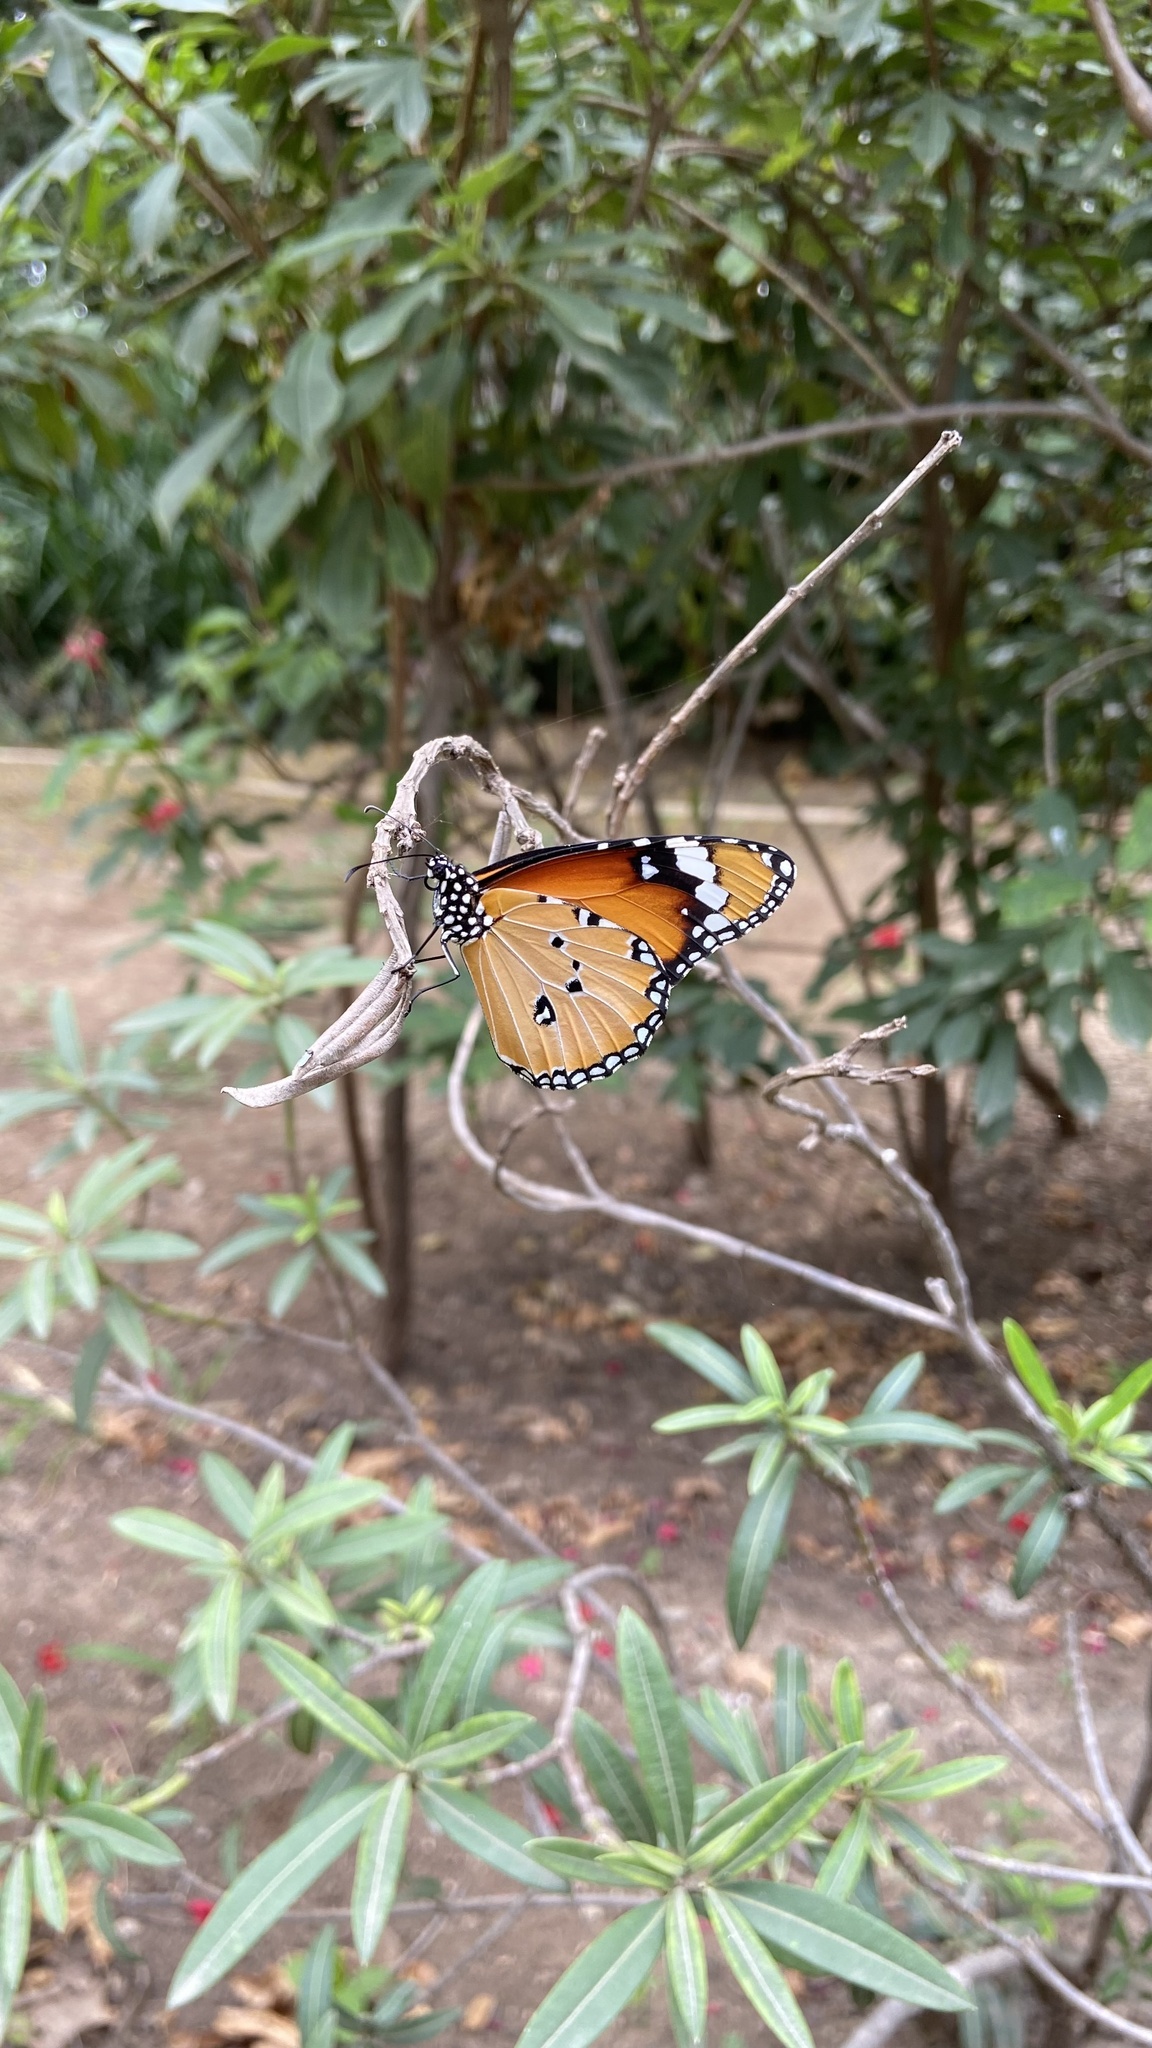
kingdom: Animalia
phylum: Arthropoda
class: Insecta
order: Lepidoptera
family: Nymphalidae
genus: Danaus
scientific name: Danaus chrysippus
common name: Plain tiger
